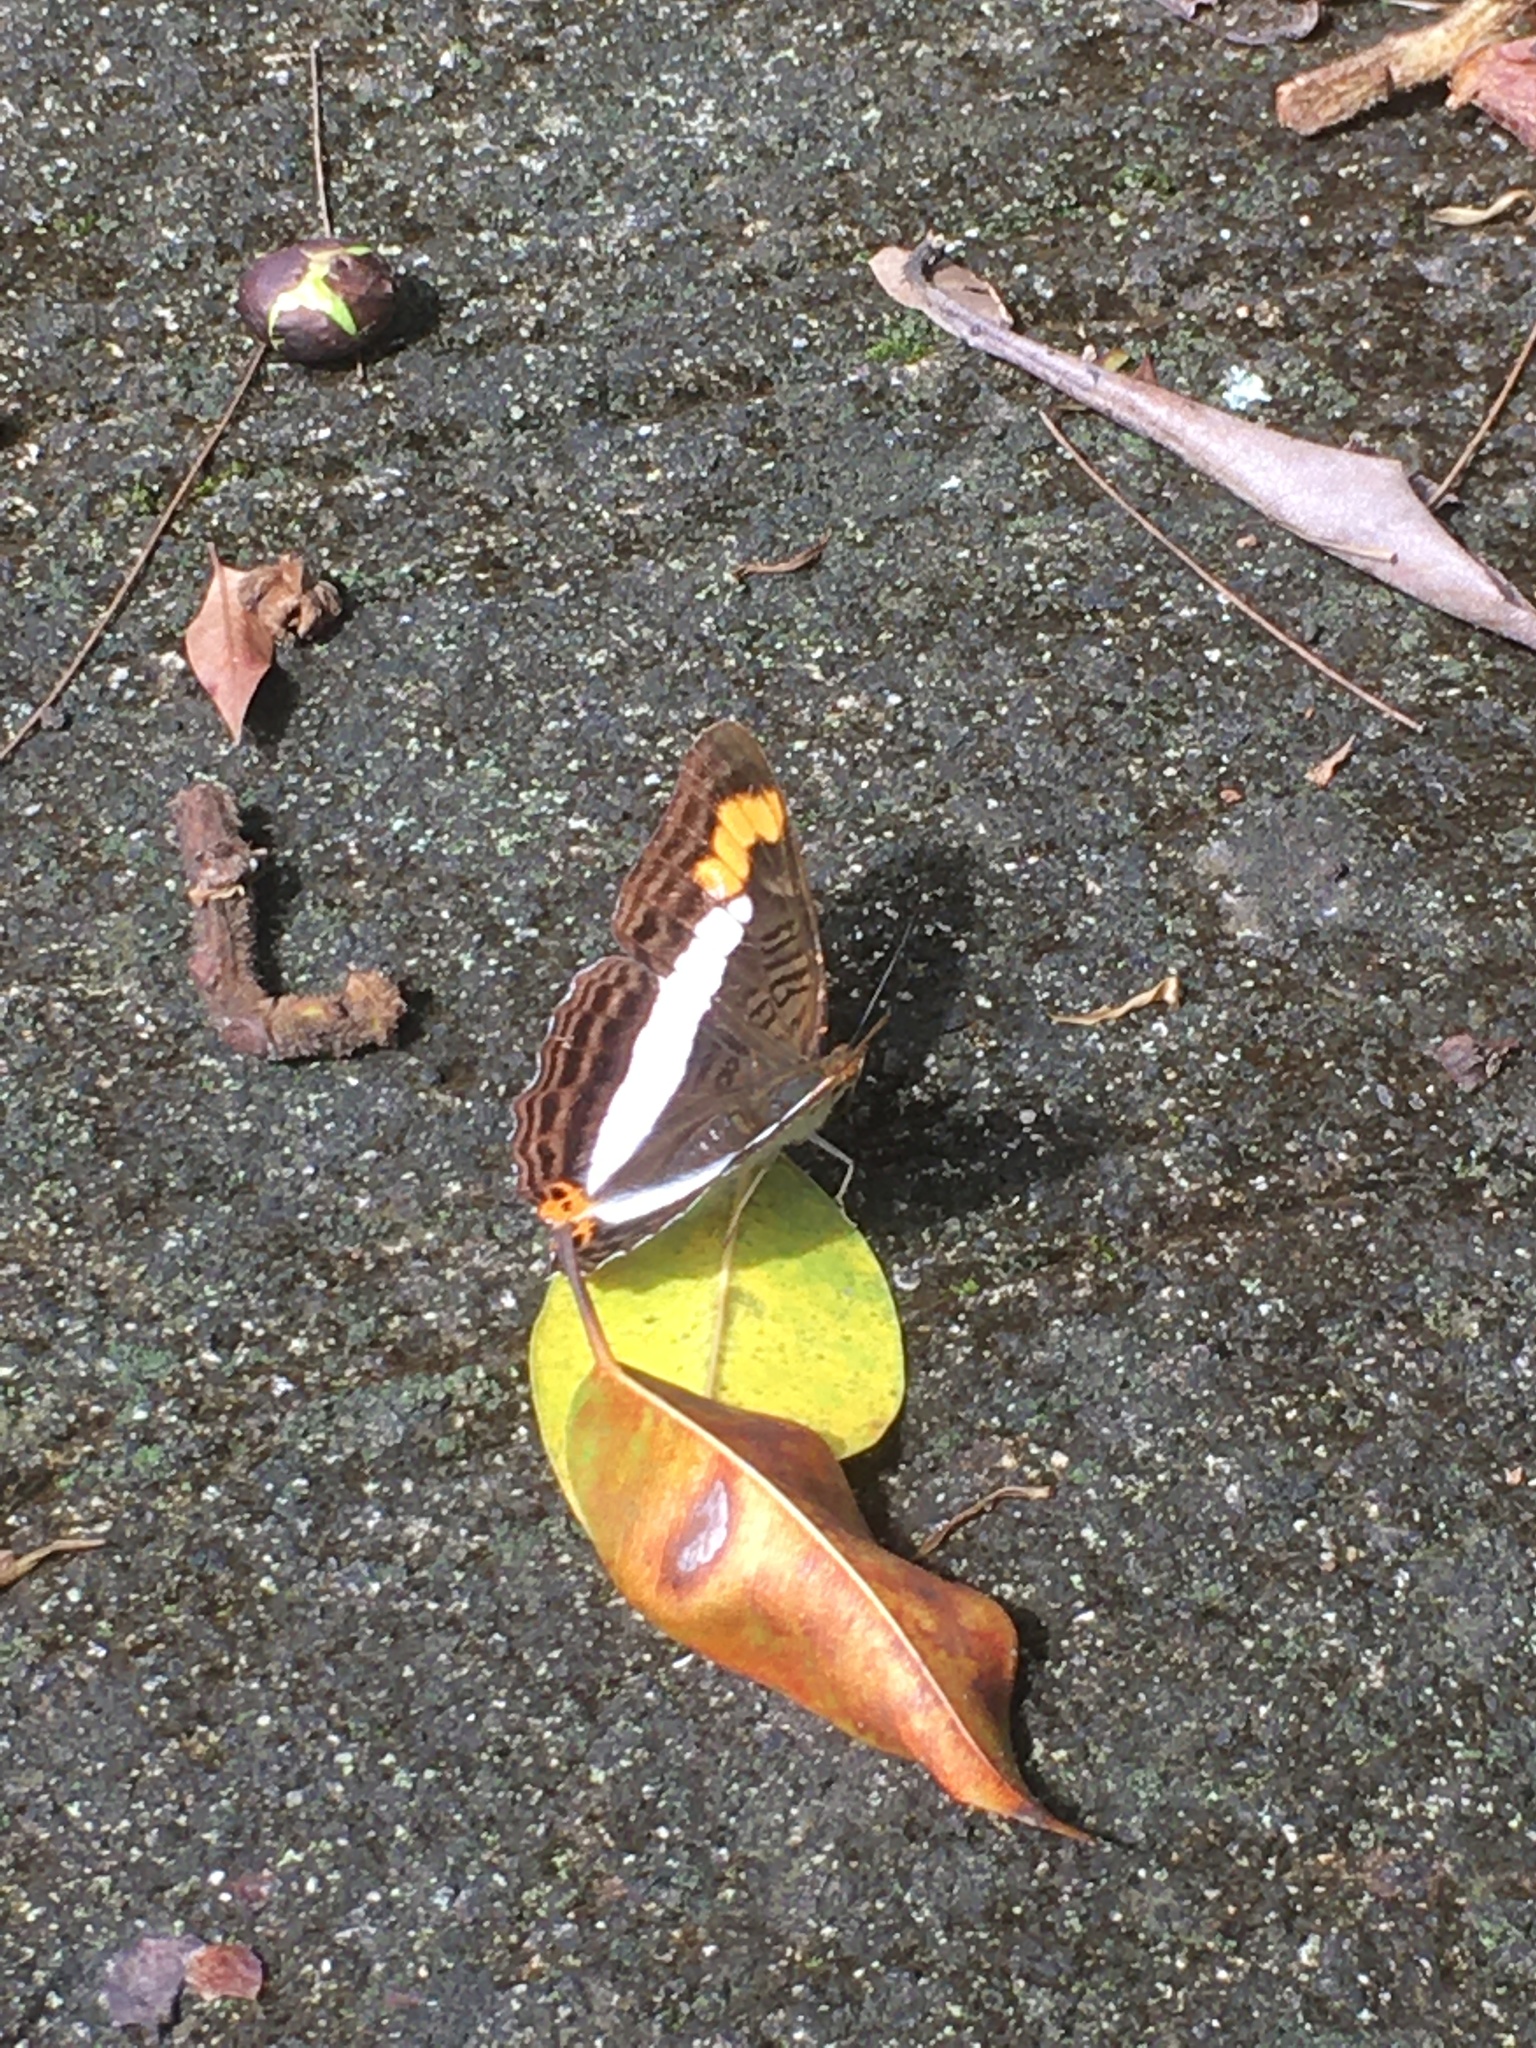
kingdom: Animalia
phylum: Arthropoda
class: Insecta
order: Lepidoptera
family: Nymphalidae
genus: Limenitis
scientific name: Limenitis pithys
